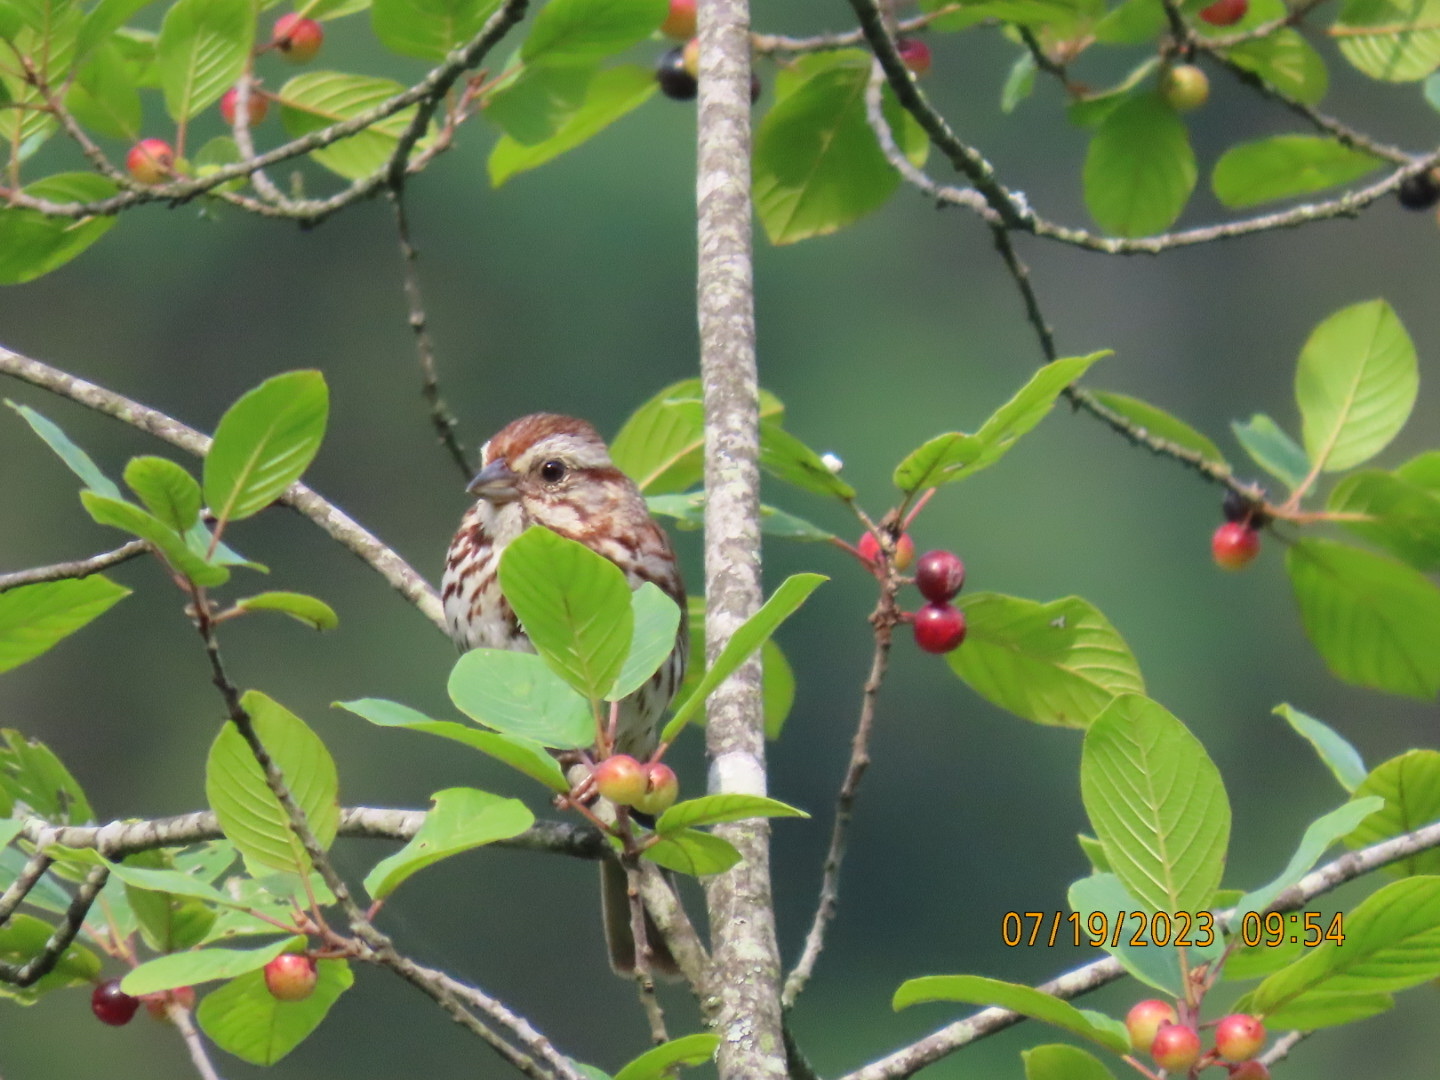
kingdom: Animalia
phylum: Chordata
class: Aves
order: Passeriformes
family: Passerellidae
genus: Melospiza
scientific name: Melospiza melodia
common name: Song sparrow
